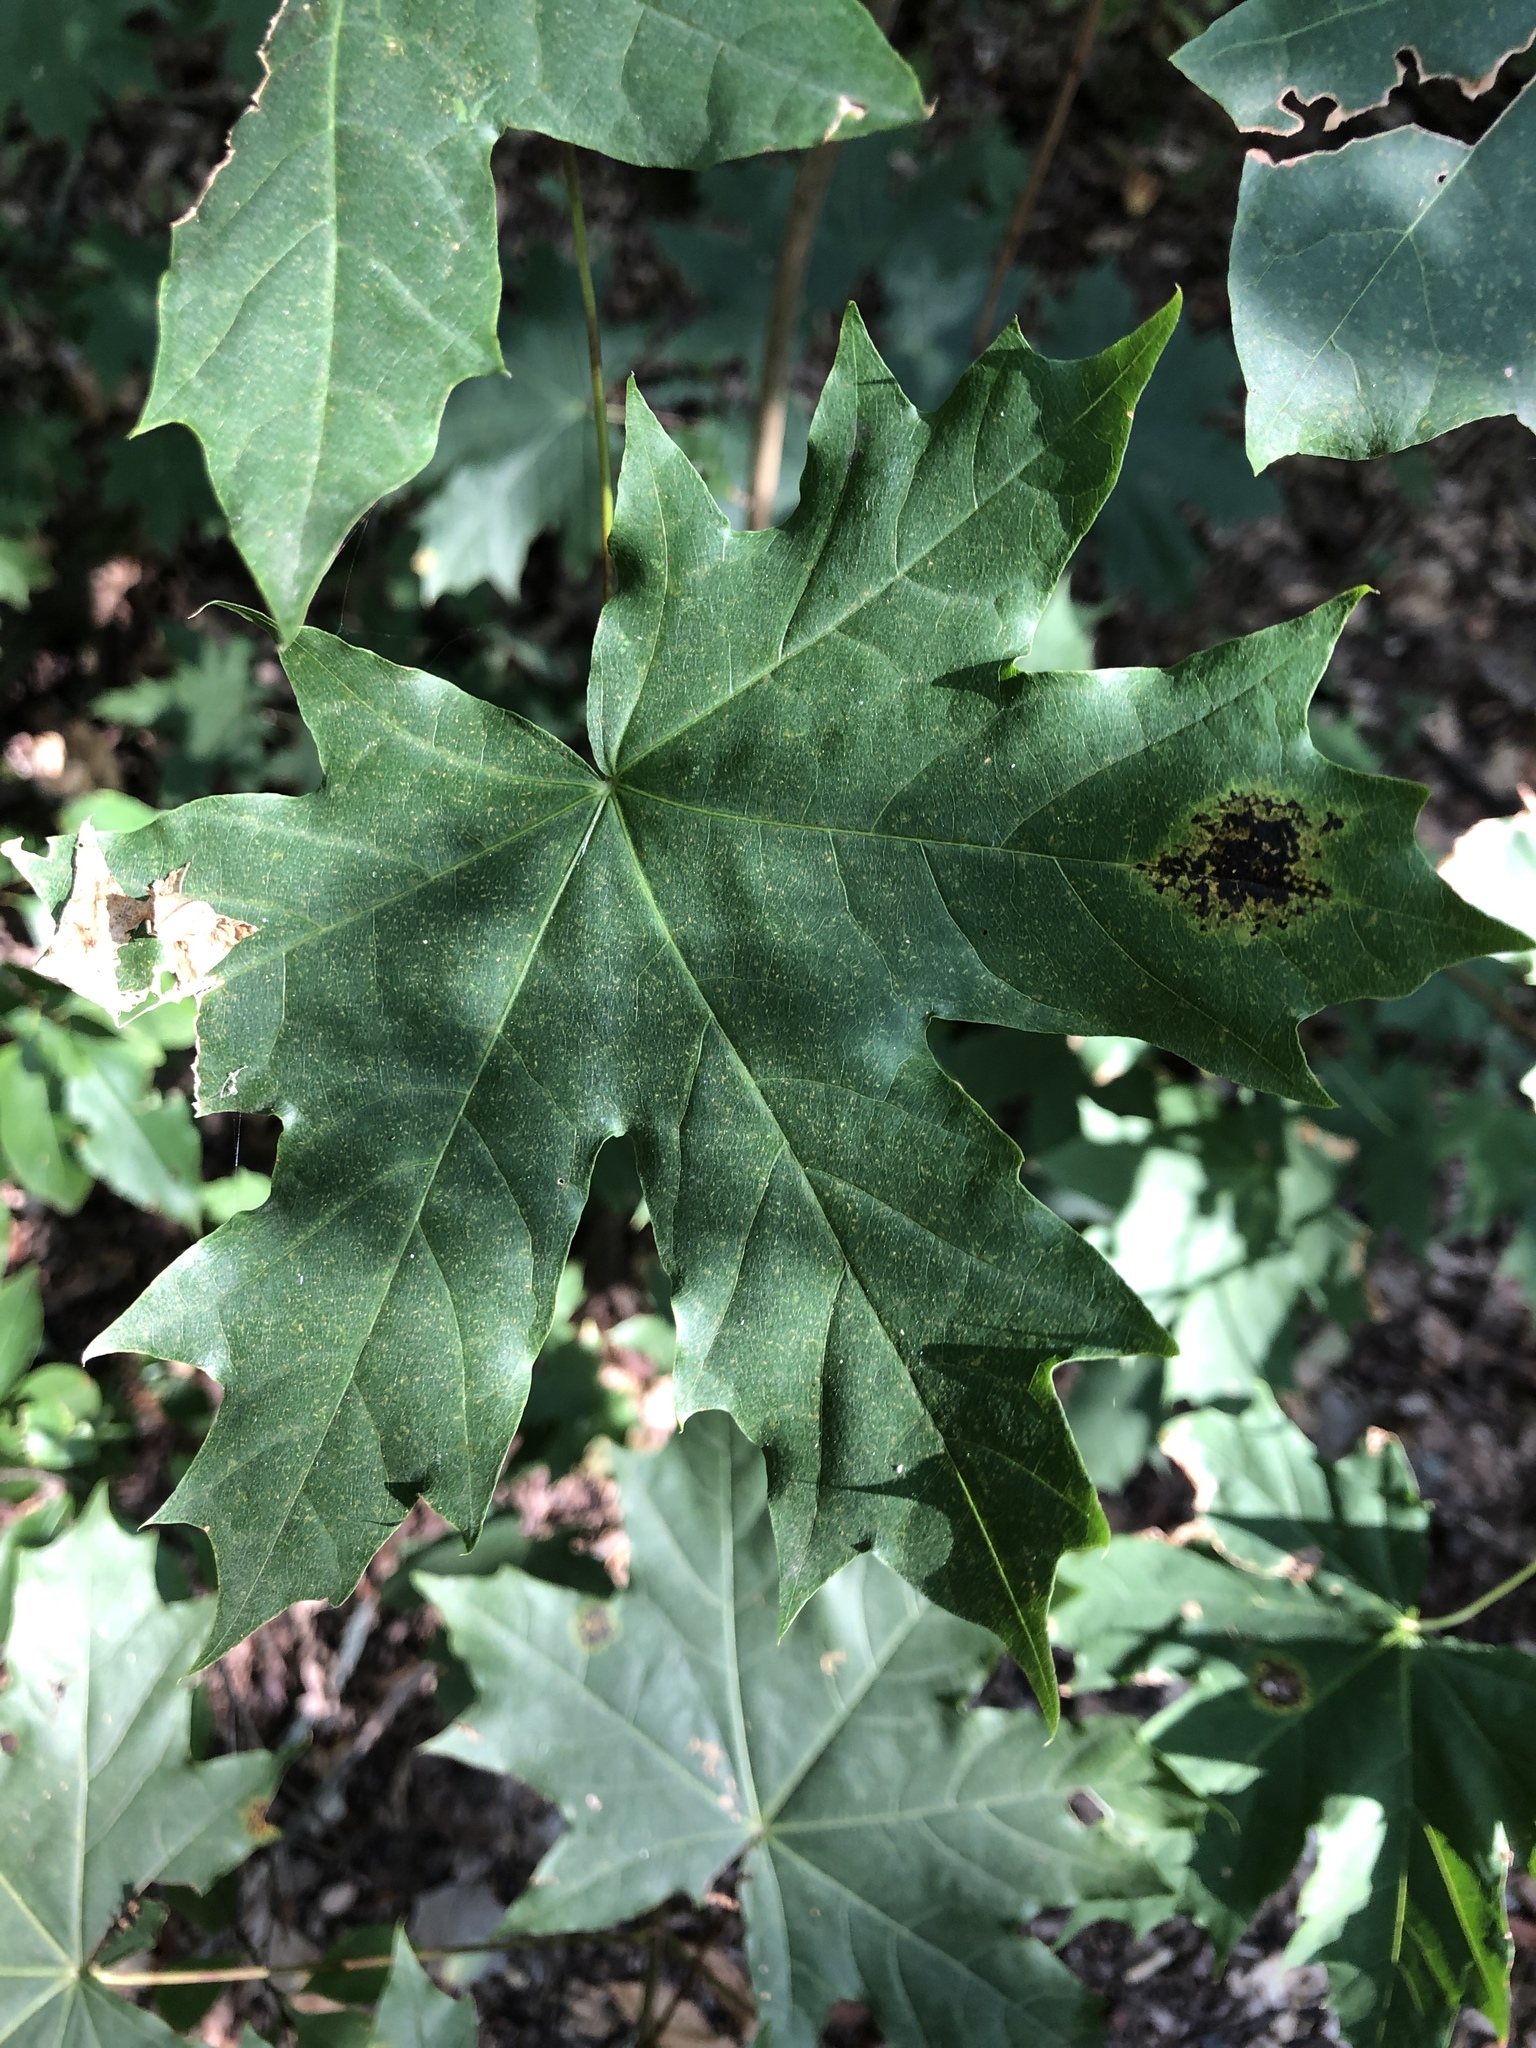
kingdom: Fungi
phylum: Ascomycota
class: Leotiomycetes
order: Rhytismatales
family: Rhytismataceae
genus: Rhytisma
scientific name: Rhytisma acerinum
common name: European tar spot
